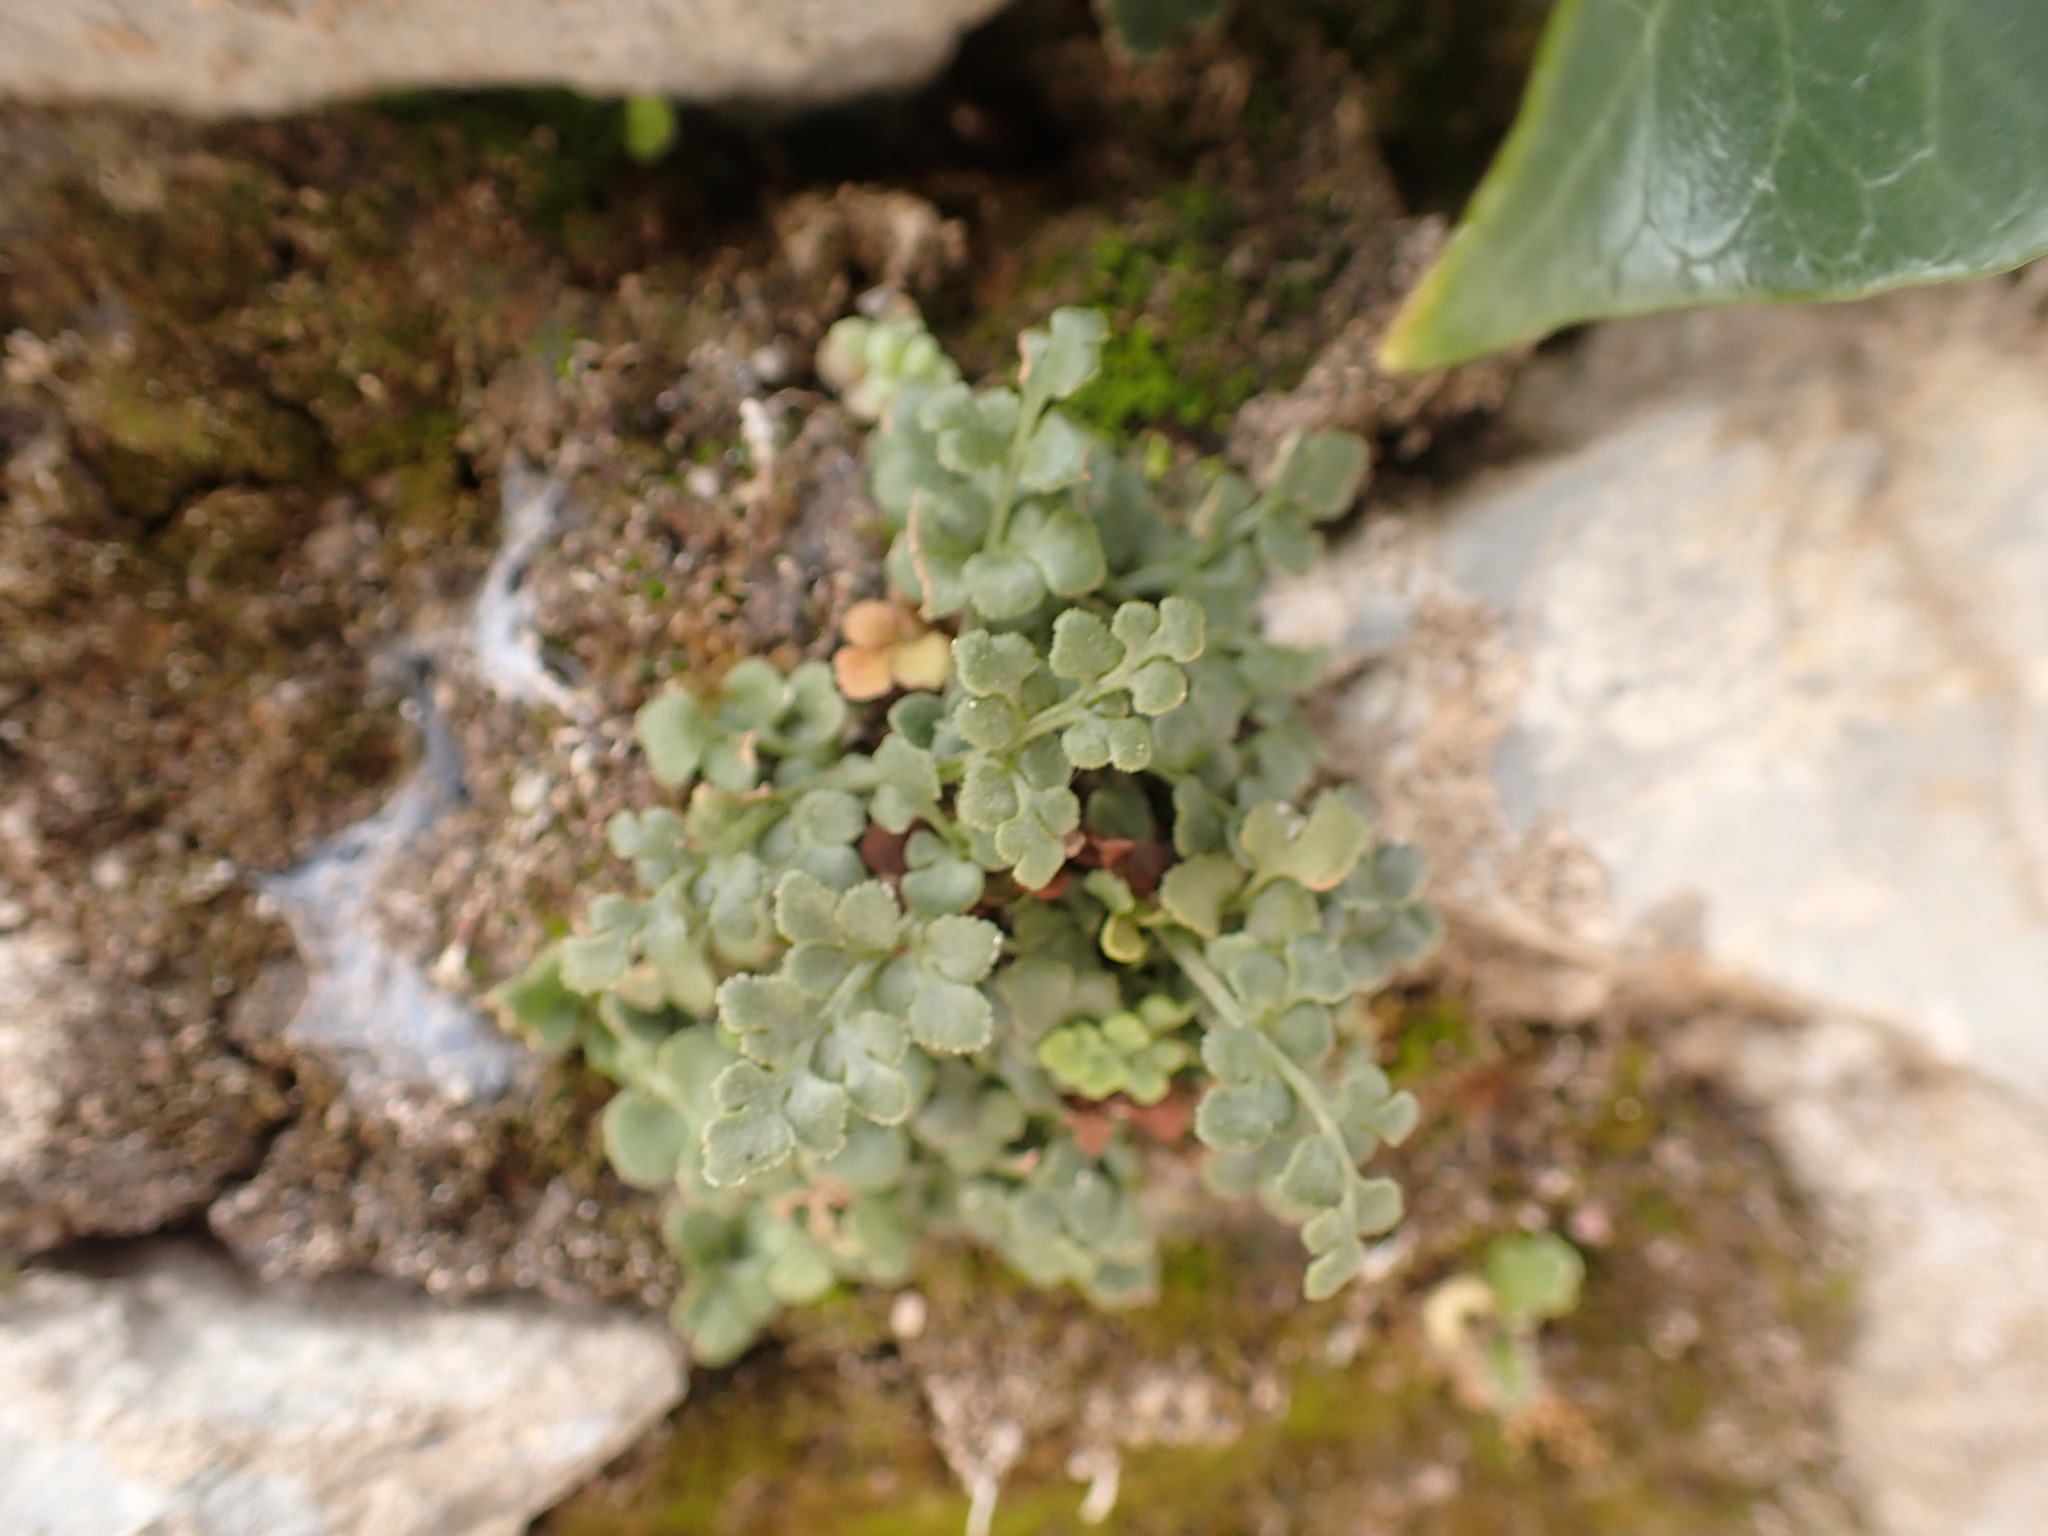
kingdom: Plantae
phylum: Tracheophyta
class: Polypodiopsida
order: Polypodiales
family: Aspleniaceae
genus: Asplenium
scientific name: Asplenium ruta-muraria
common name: Wall-rue
